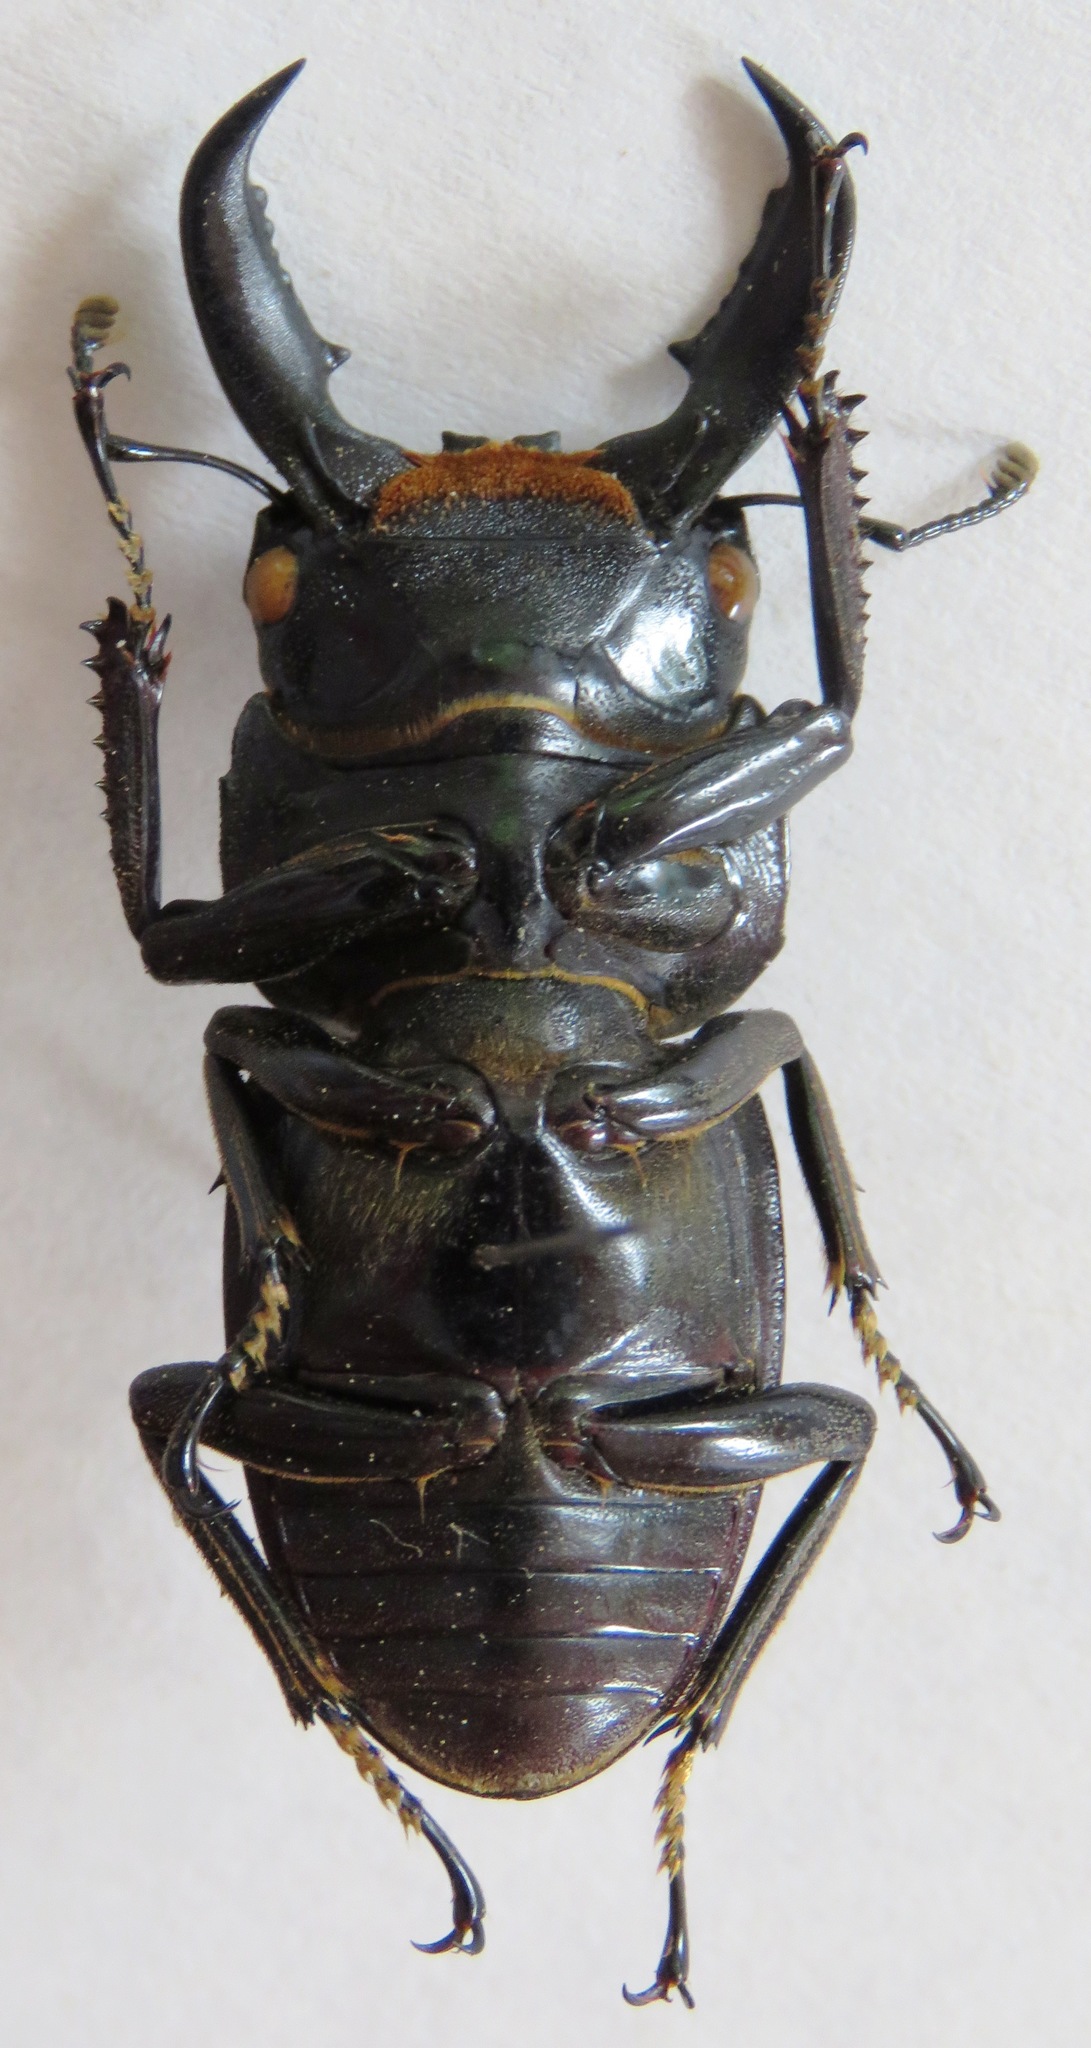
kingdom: Animalia
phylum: Arthropoda
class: Insecta
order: Coleoptera
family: Lucanidae
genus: Serrognathus
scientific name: Serrognathus titanus
